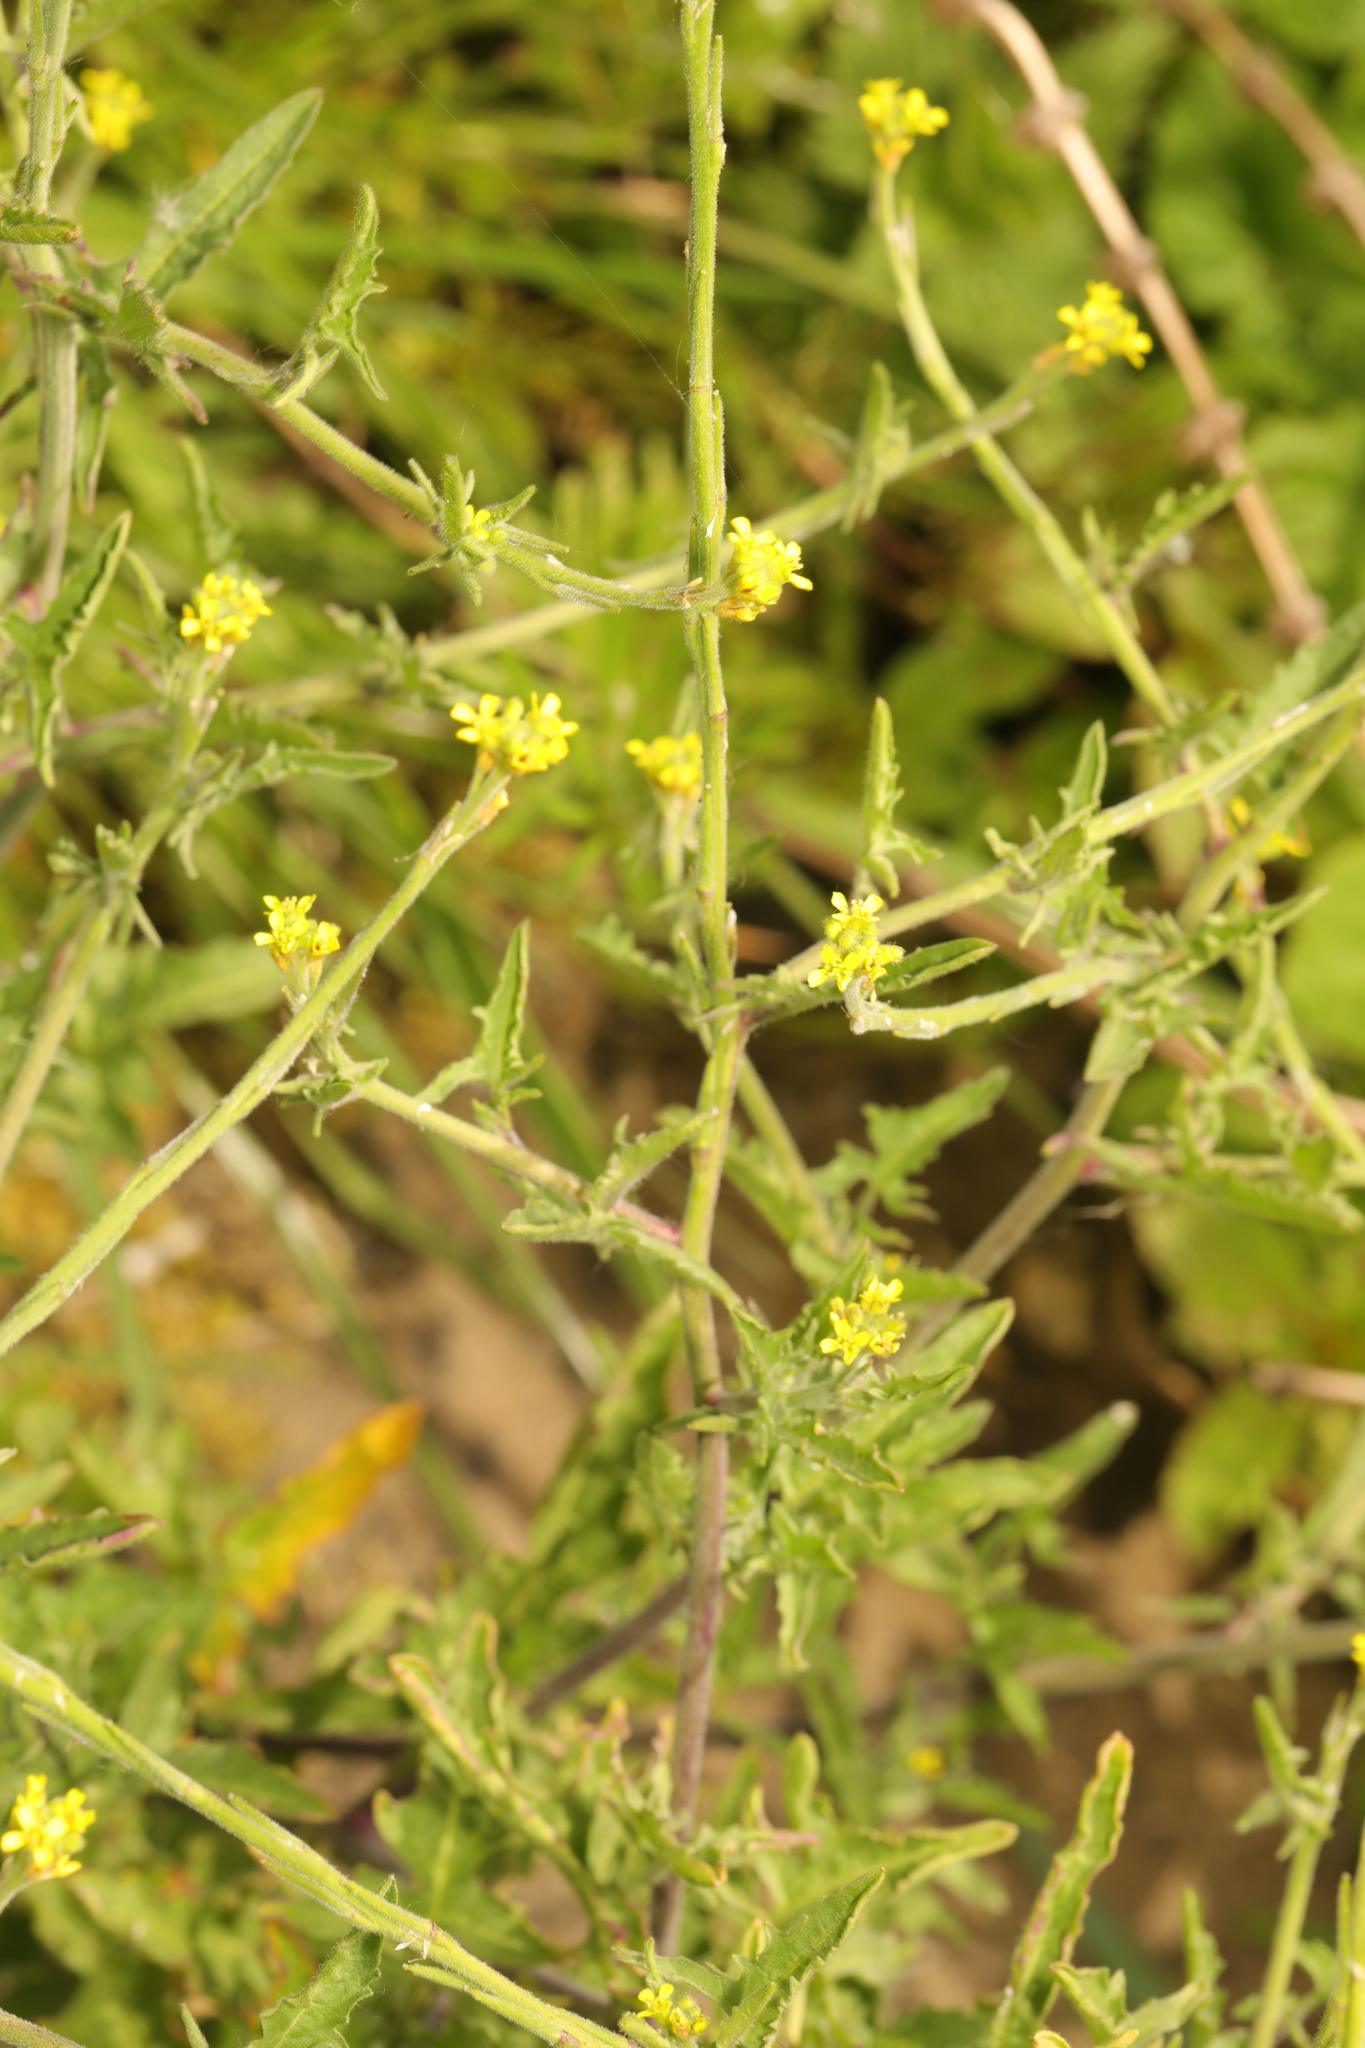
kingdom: Plantae
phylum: Tracheophyta
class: Magnoliopsida
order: Brassicales
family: Brassicaceae
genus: Sisymbrium
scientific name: Sisymbrium officinale
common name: Hedge mustard
